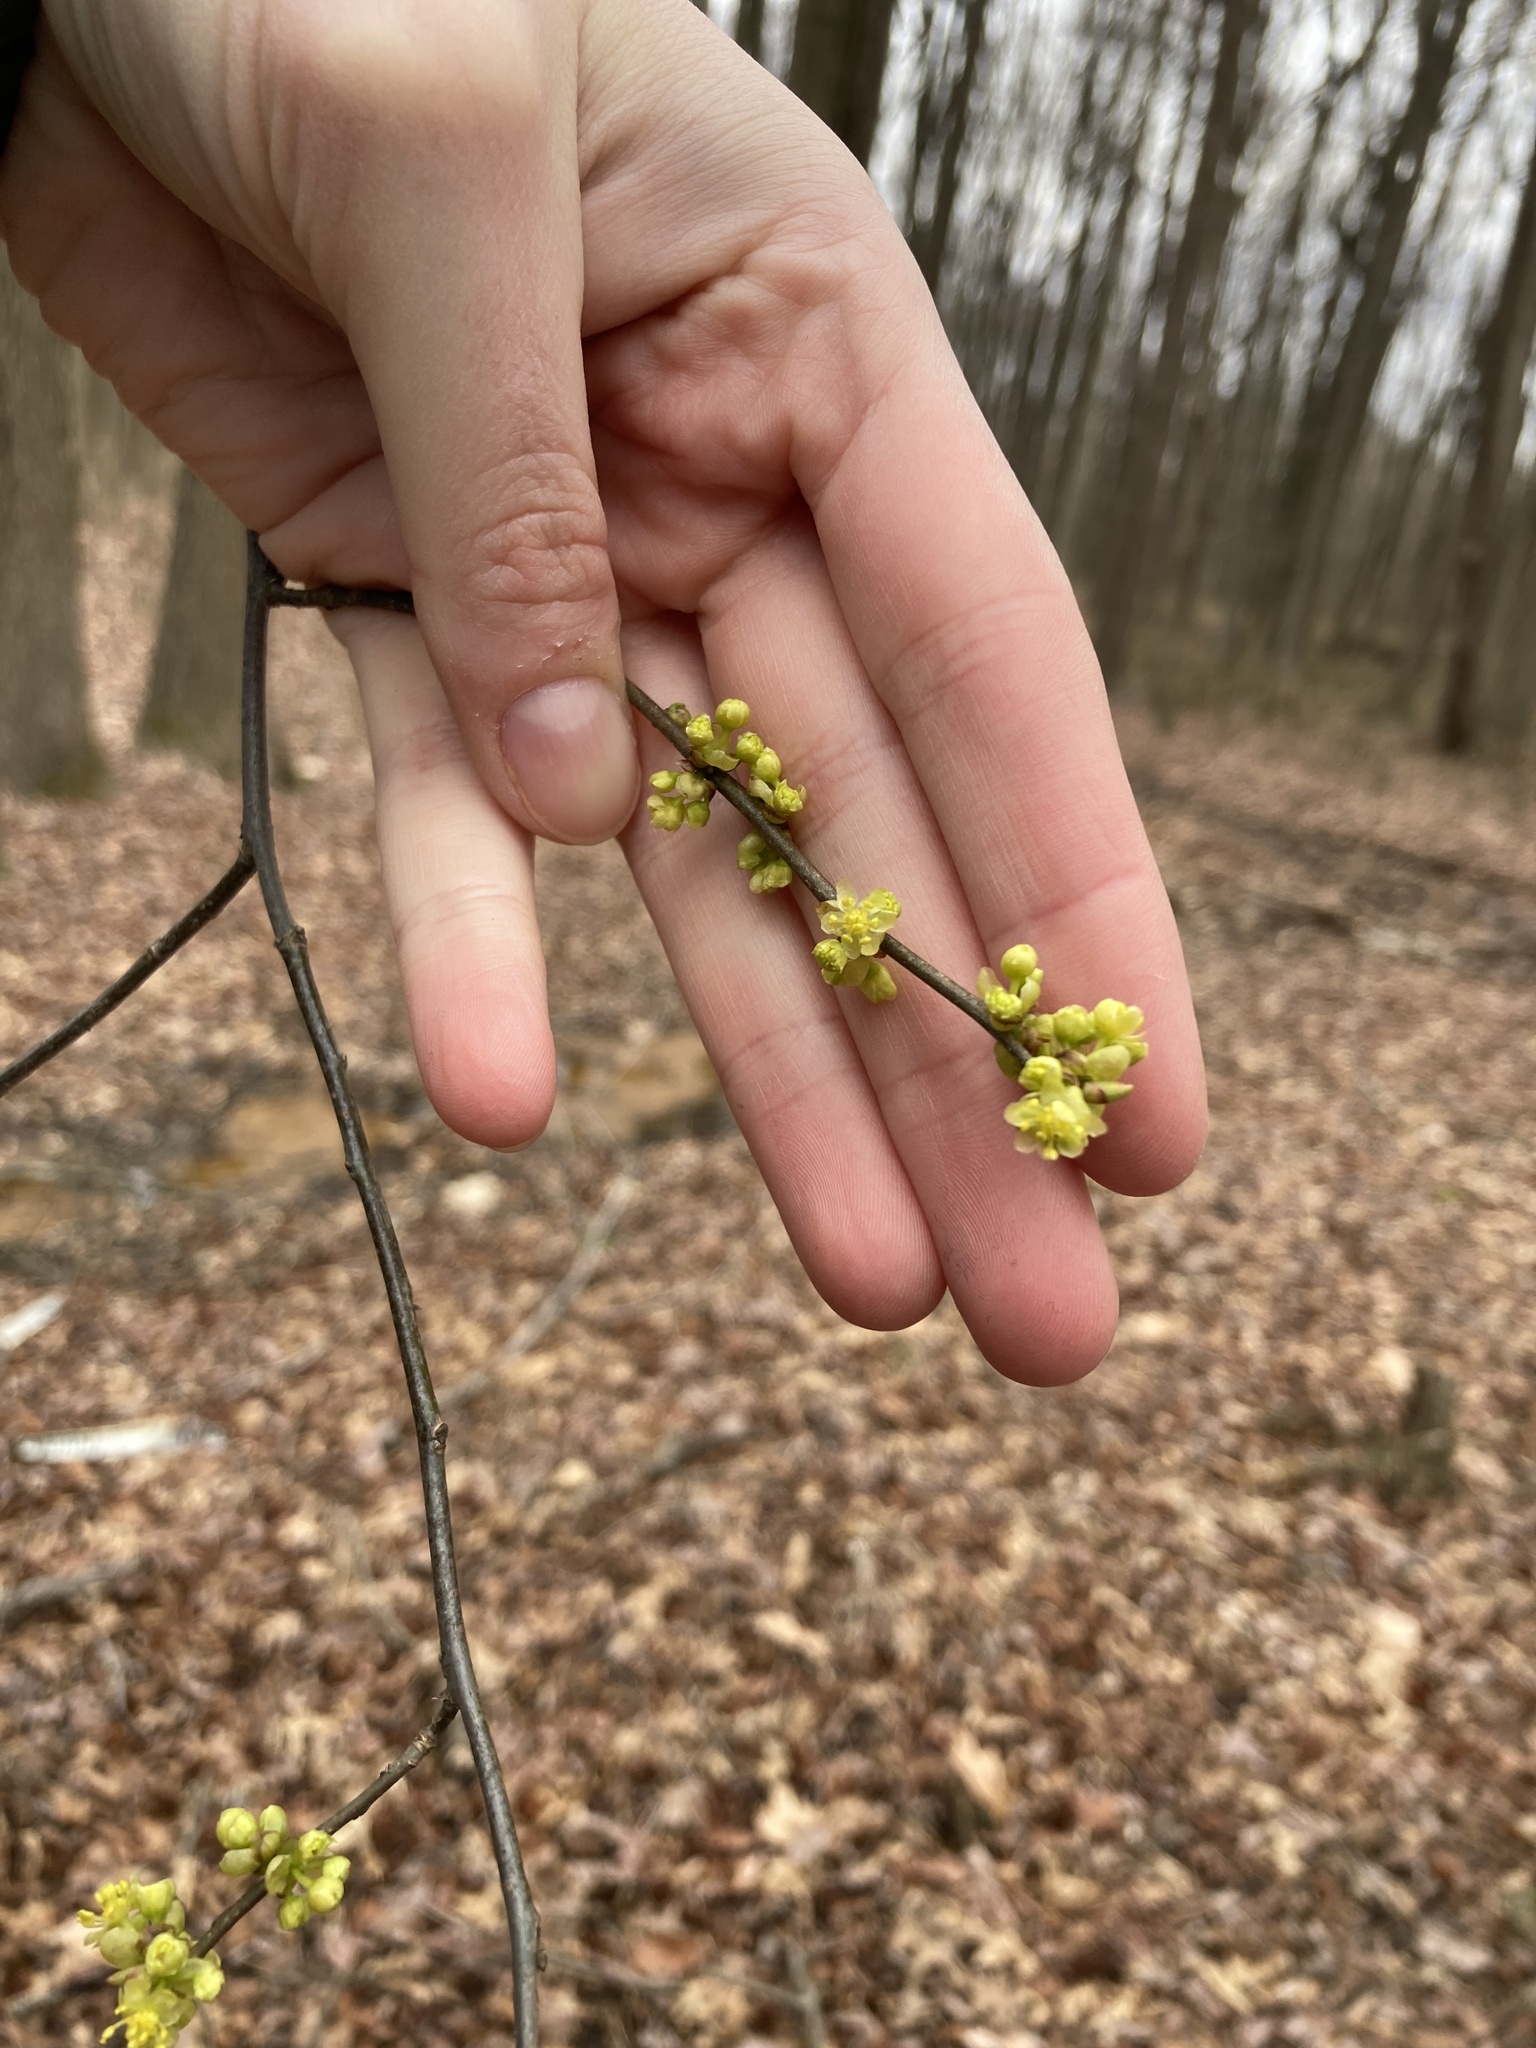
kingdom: Plantae
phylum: Tracheophyta
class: Magnoliopsida
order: Laurales
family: Lauraceae
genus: Lindera
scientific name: Lindera benzoin
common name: Spicebush
